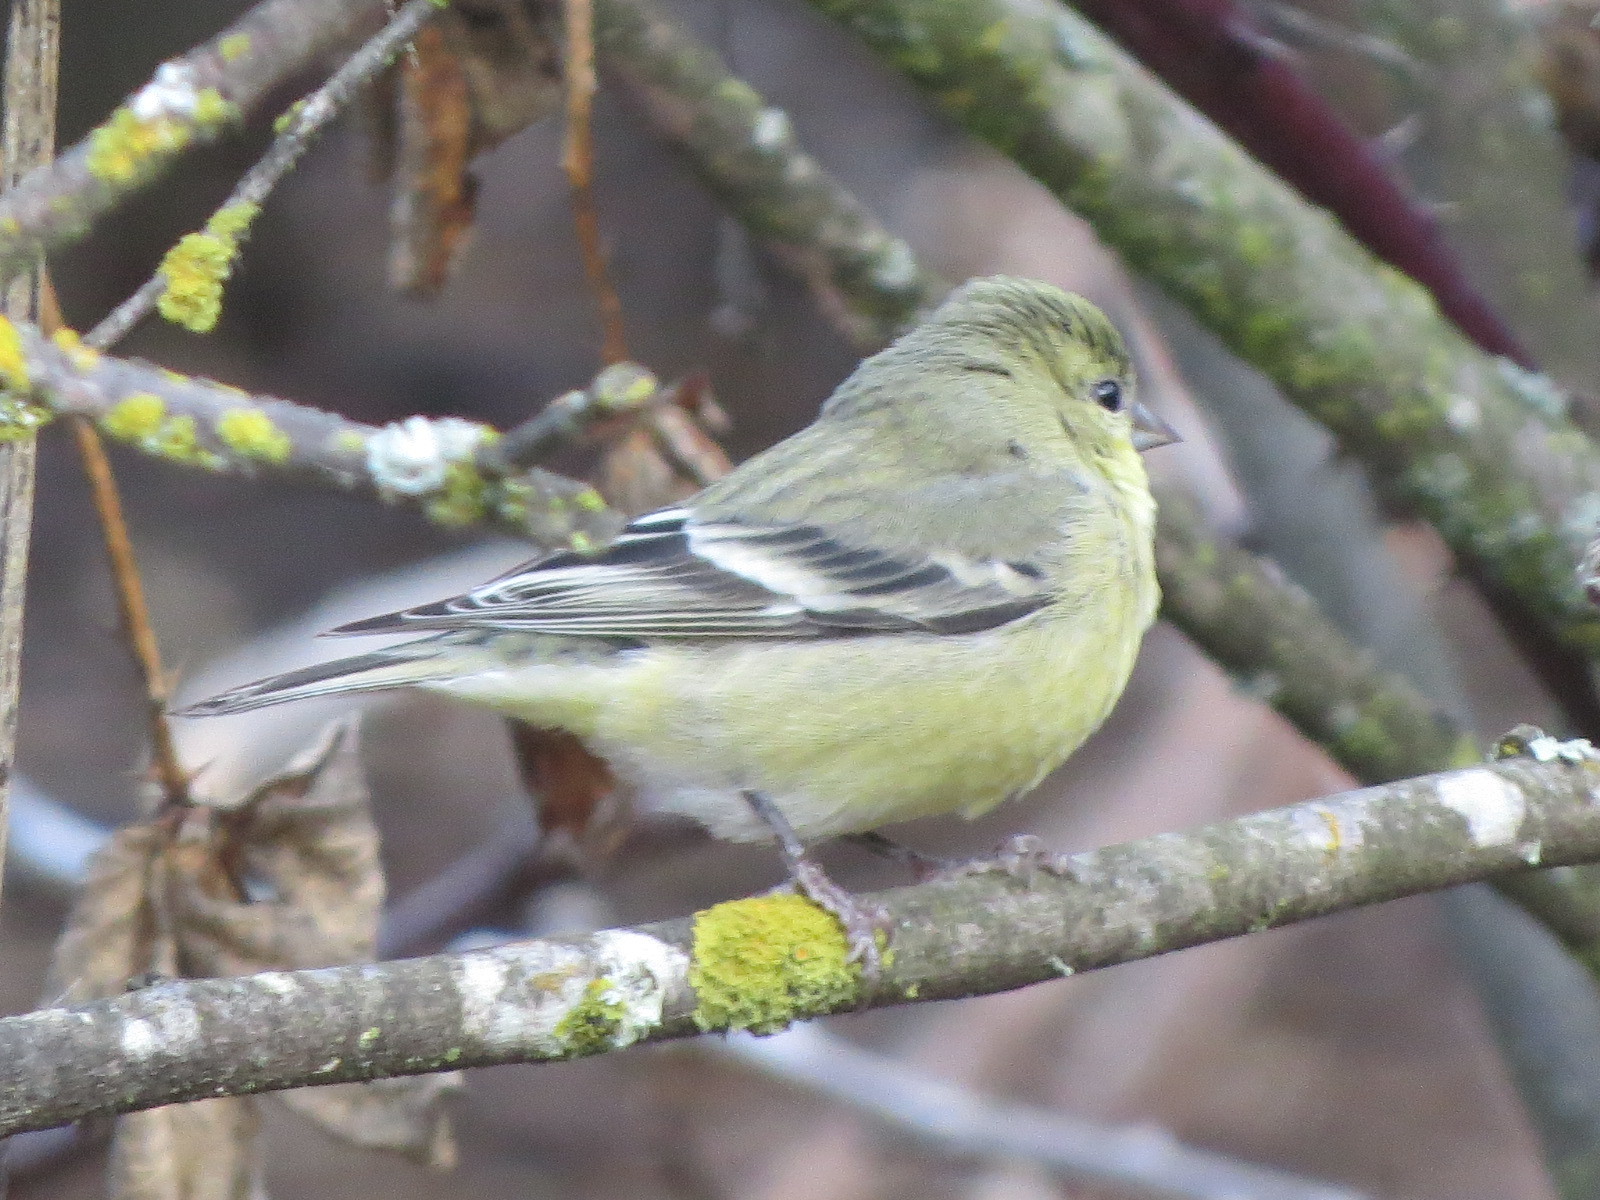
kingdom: Animalia
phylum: Chordata
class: Aves
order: Passeriformes
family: Fringillidae
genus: Spinus
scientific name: Spinus psaltria
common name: Lesser goldfinch
